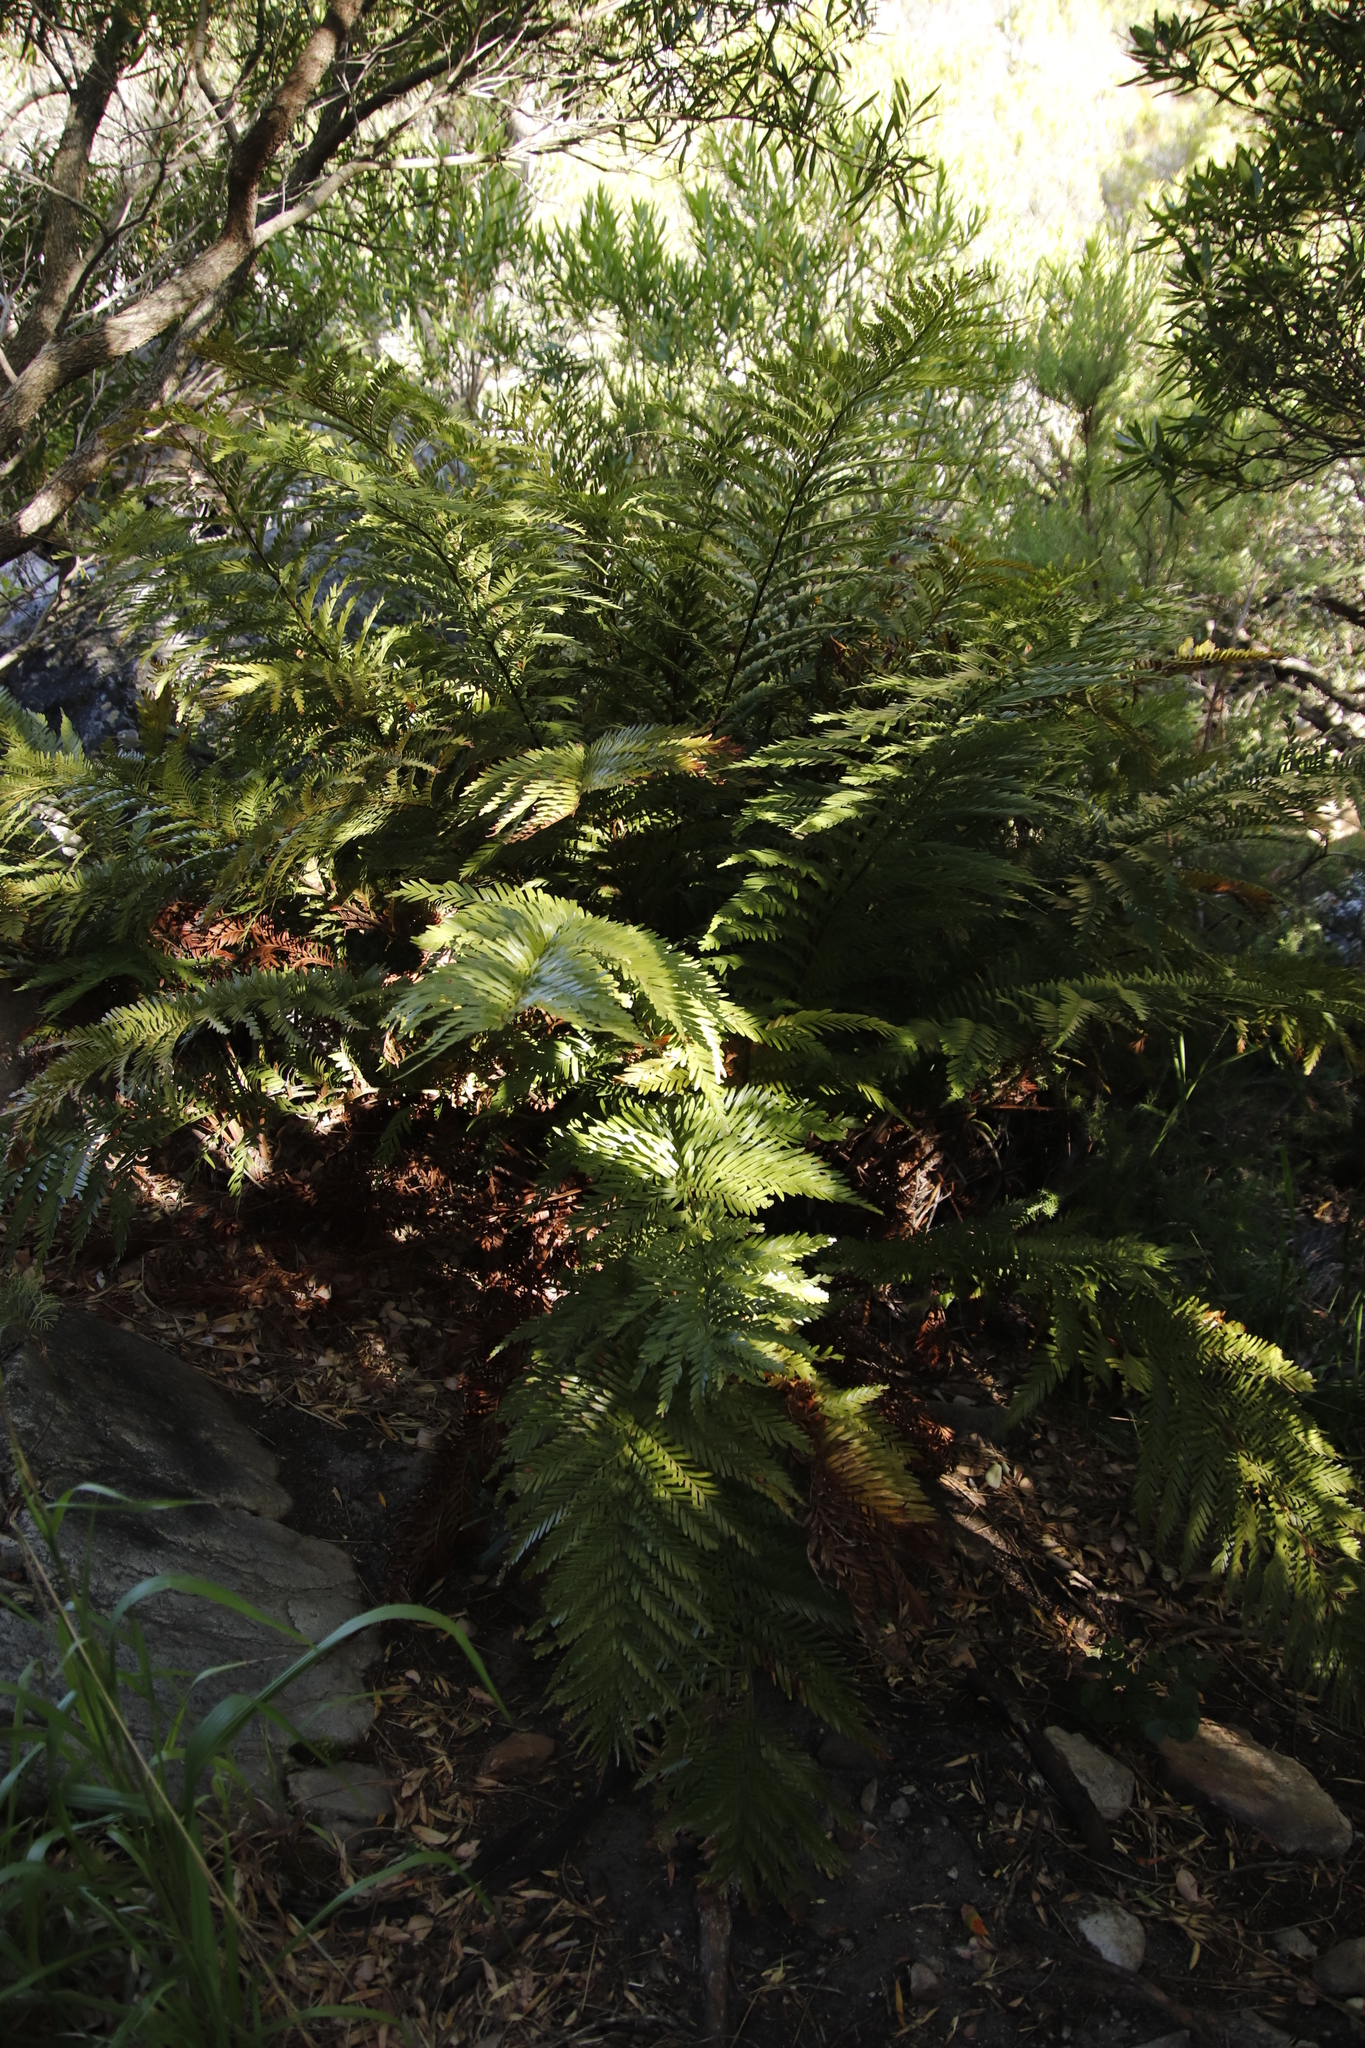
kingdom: Plantae
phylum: Tracheophyta
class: Polypodiopsida
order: Osmundales
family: Osmundaceae
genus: Todea
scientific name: Todea barbara
